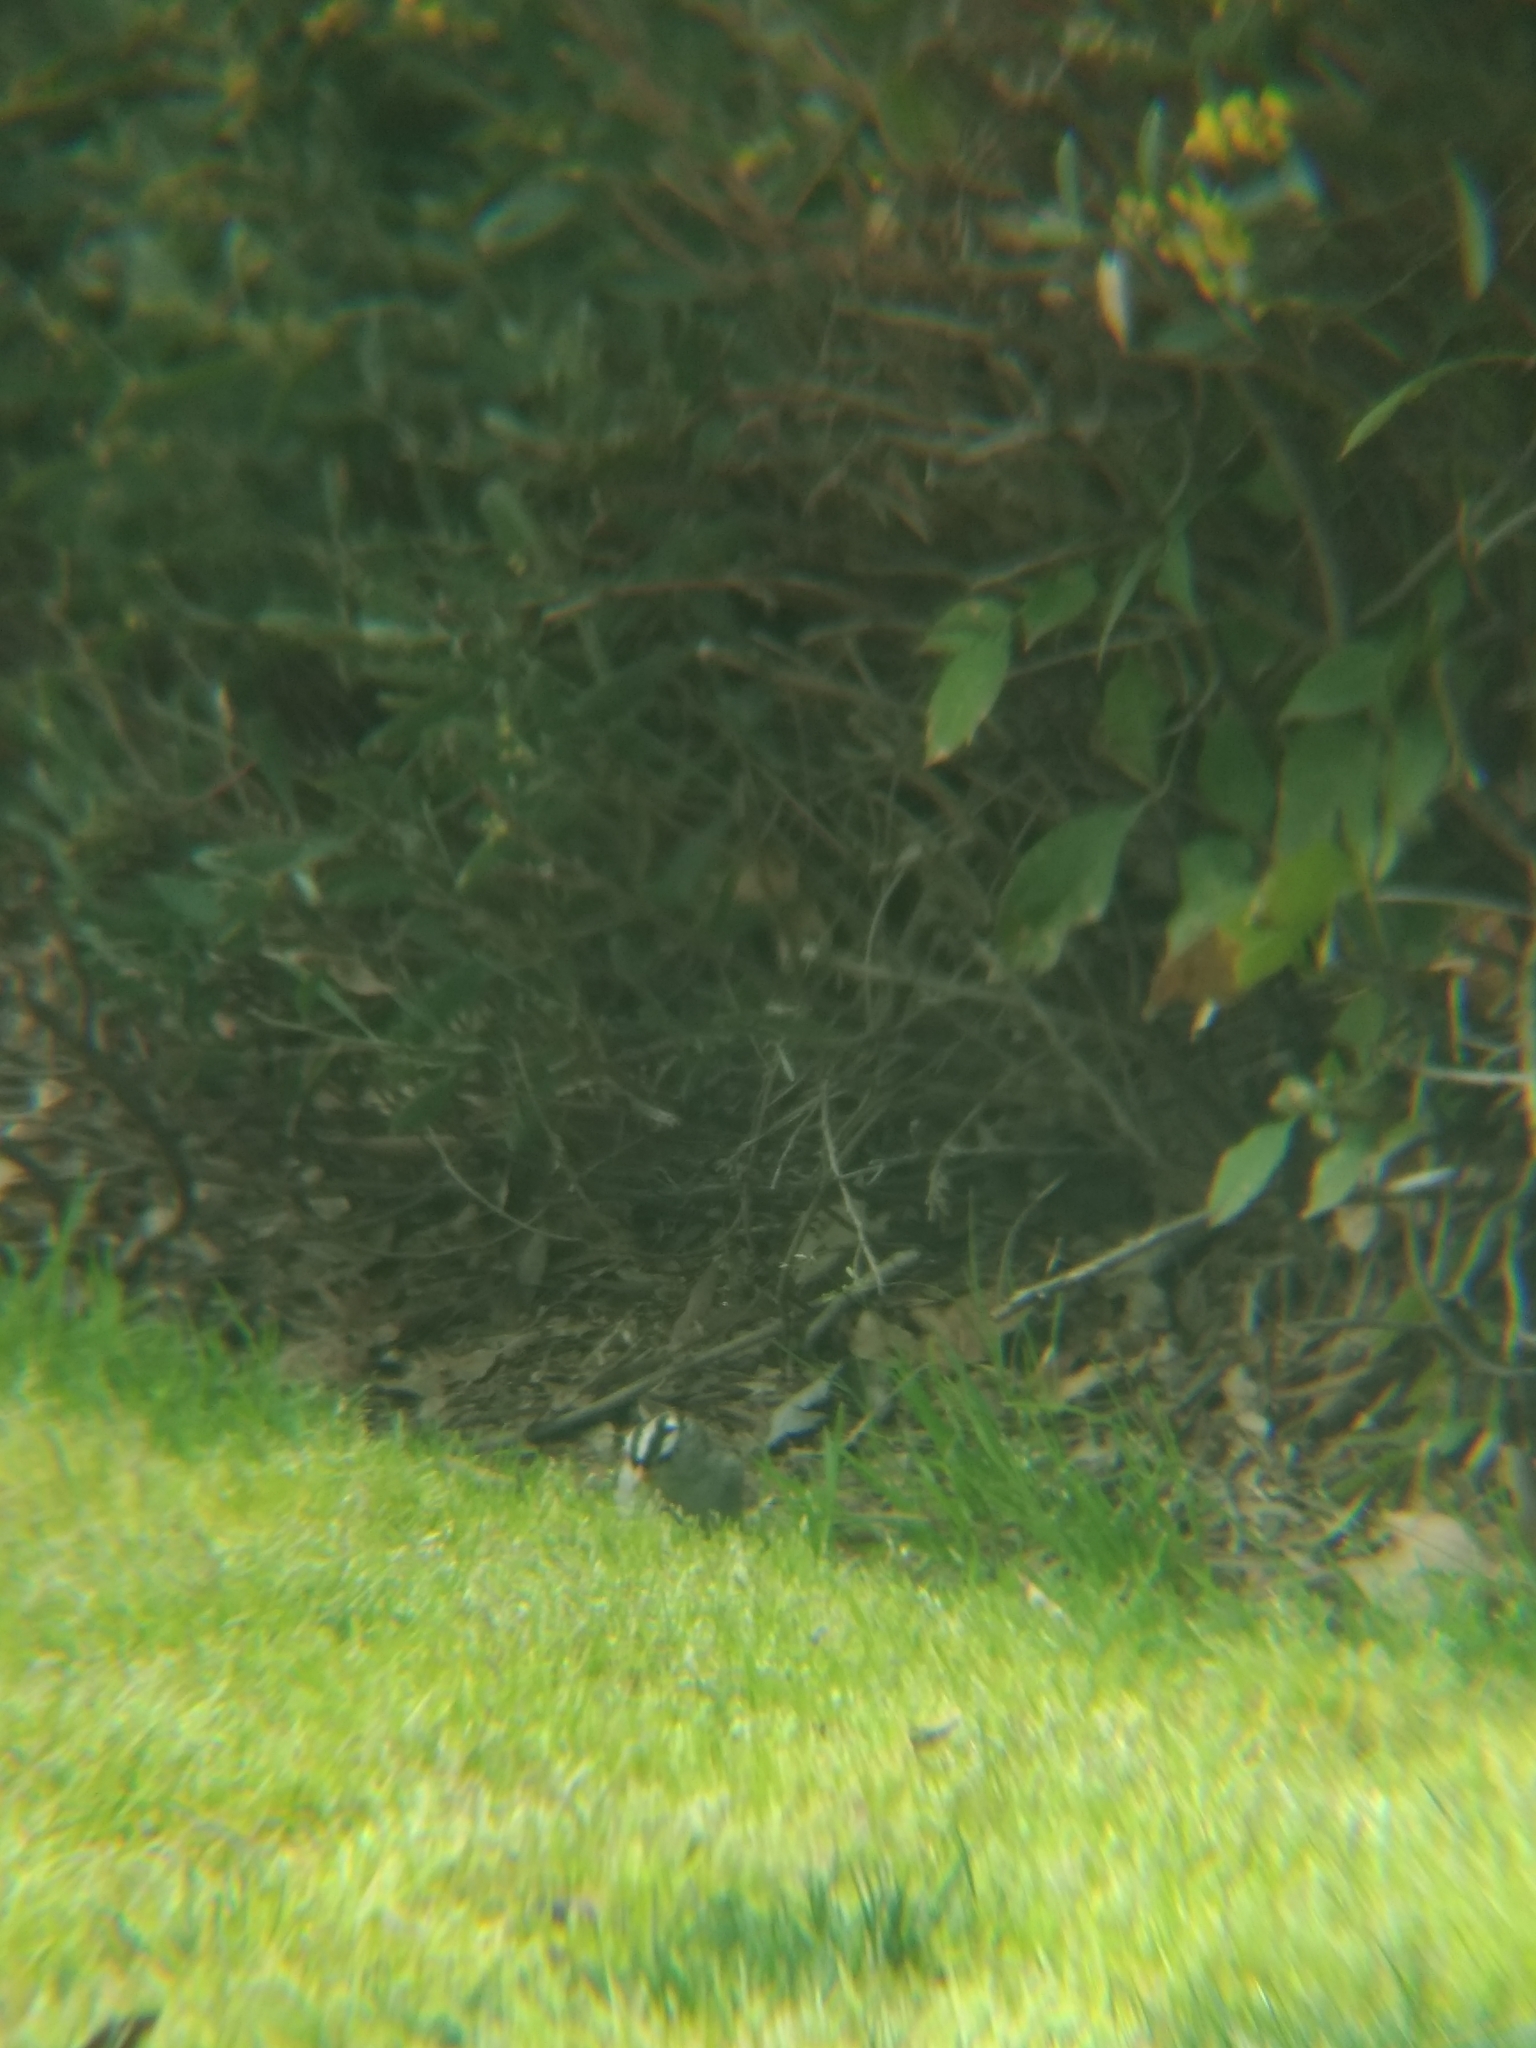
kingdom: Animalia
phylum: Chordata
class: Aves
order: Passeriformes
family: Passerellidae
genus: Zonotrichia
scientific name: Zonotrichia leucophrys
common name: White-crowned sparrow
